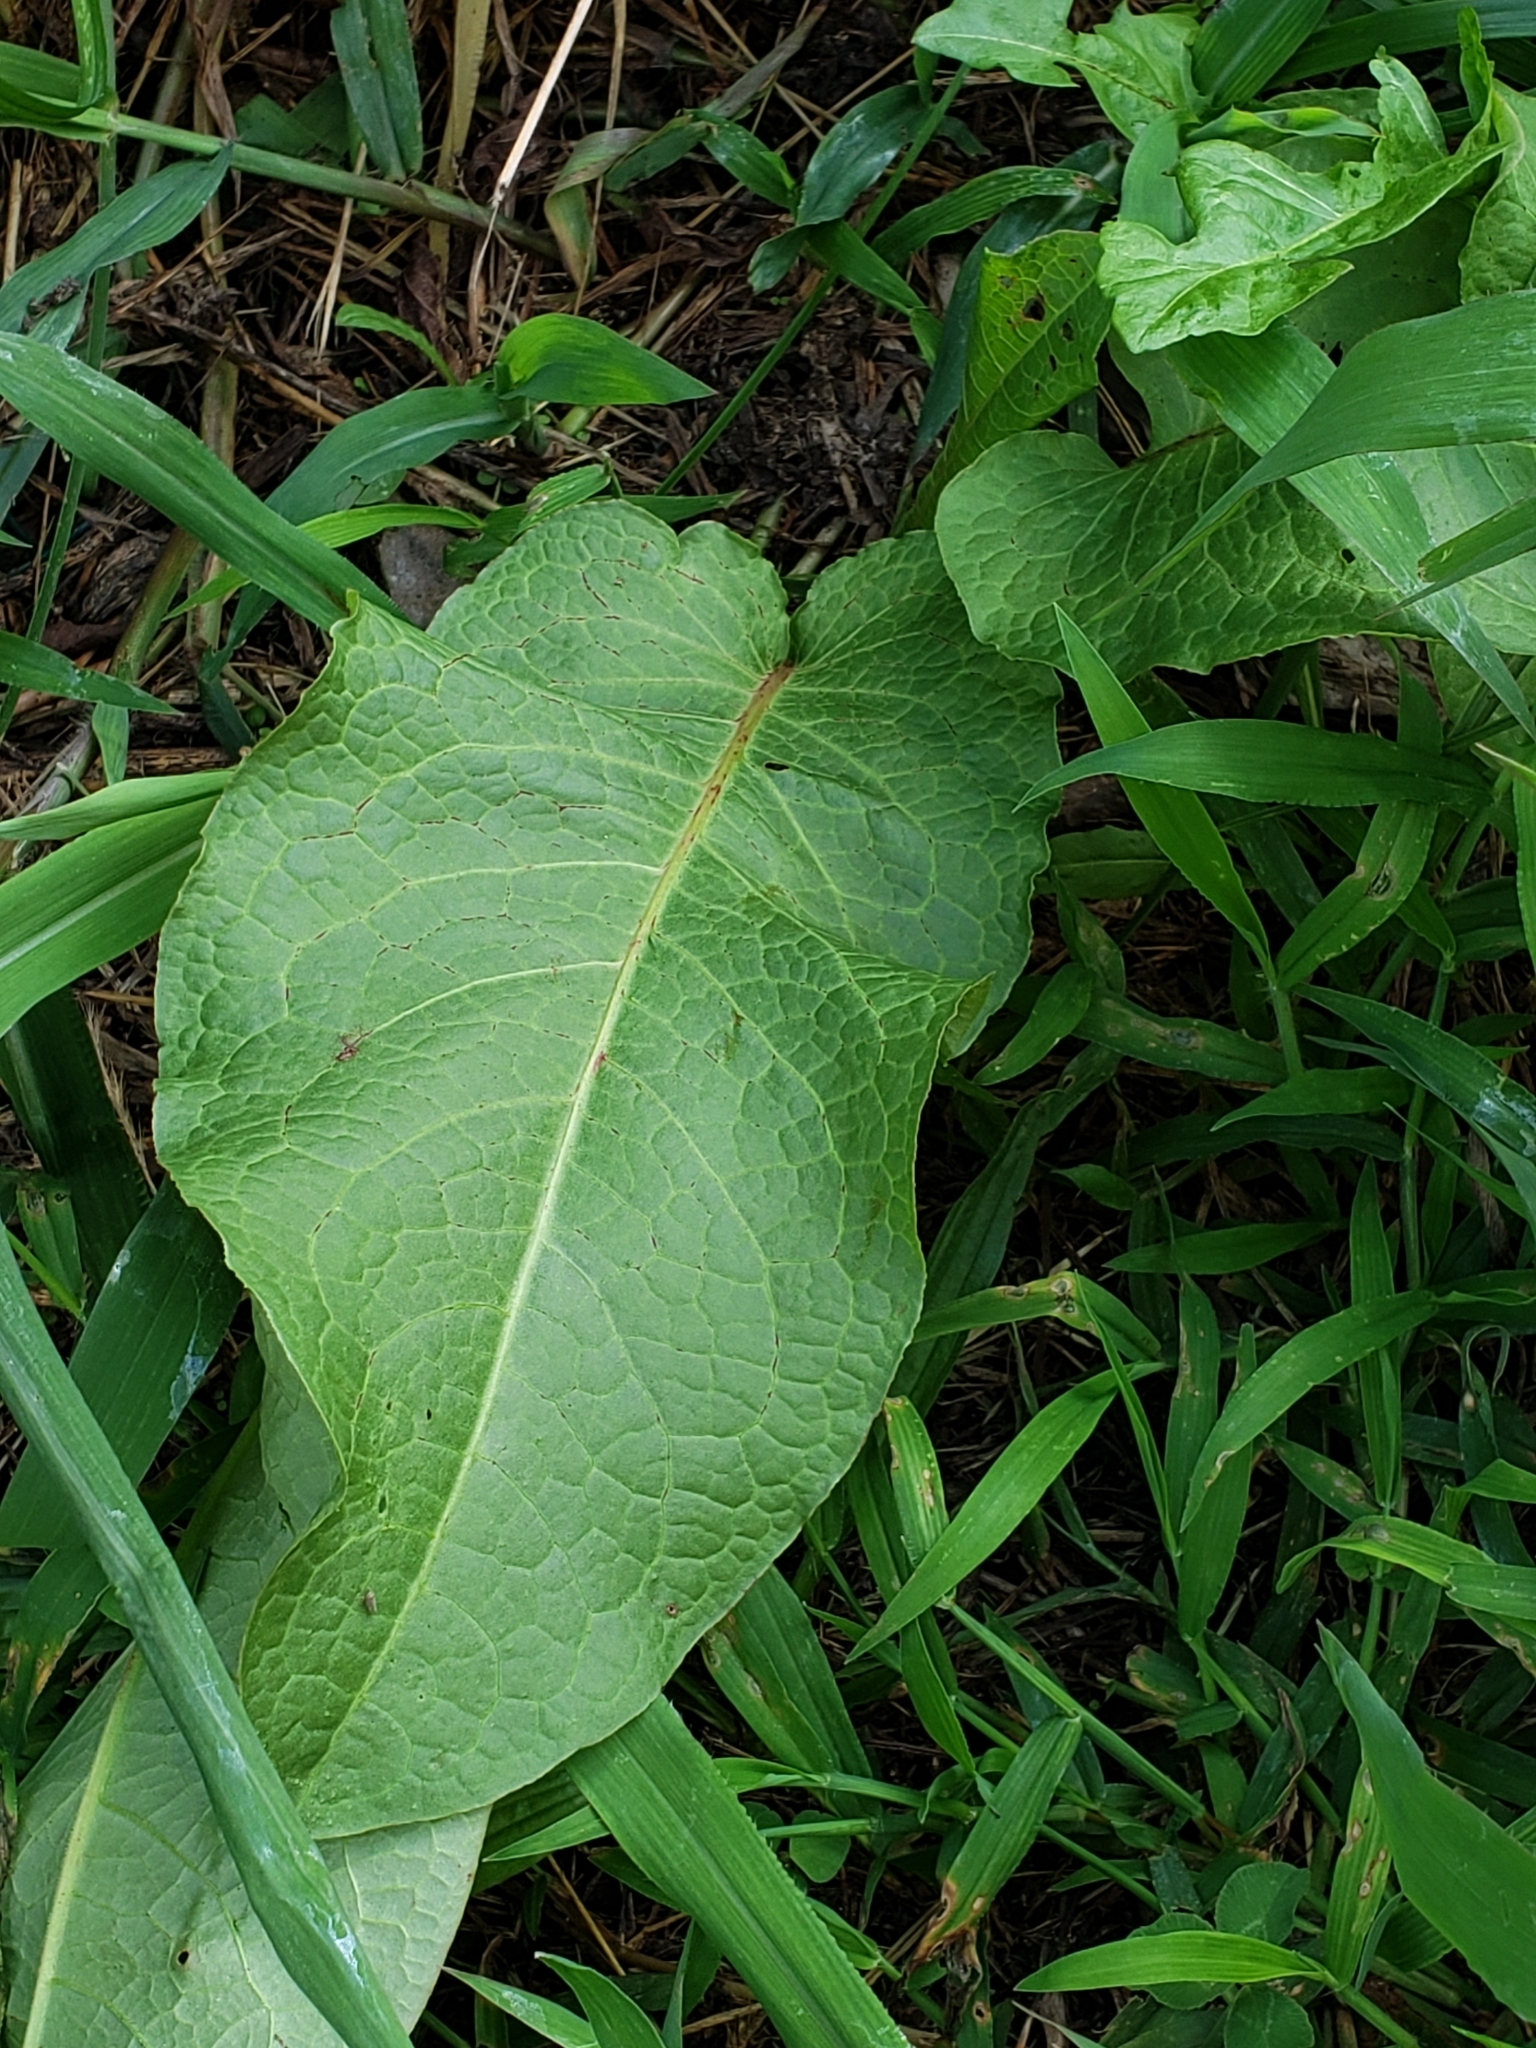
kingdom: Plantae
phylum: Tracheophyta
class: Magnoliopsida
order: Caryophyllales
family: Polygonaceae
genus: Rumex
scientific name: Rumex obtusifolius
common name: Bitter dock
